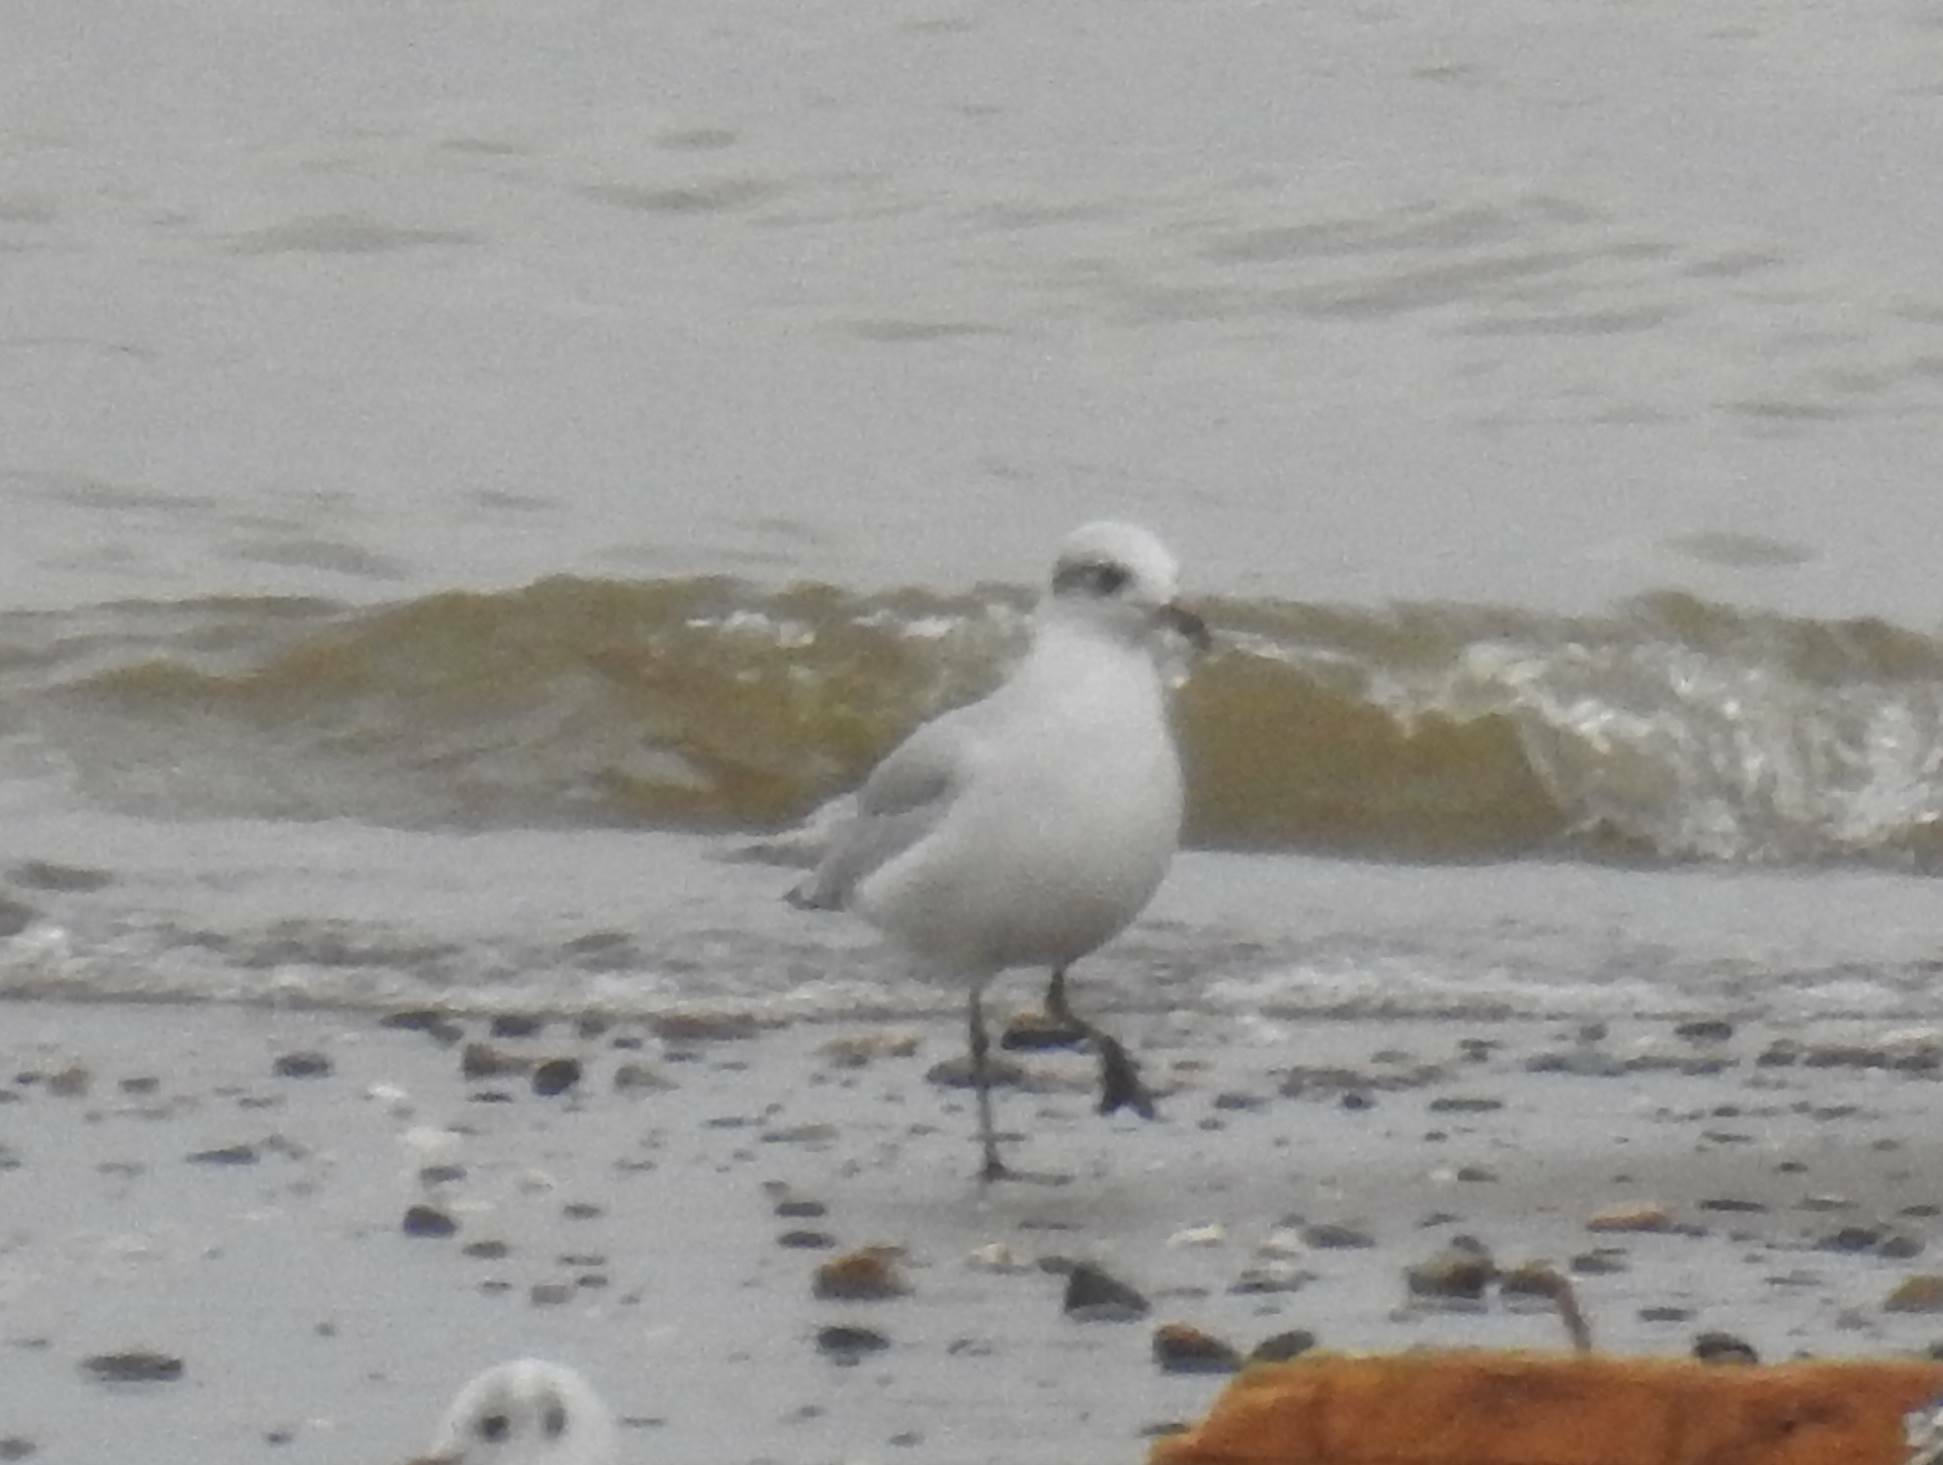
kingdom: Animalia
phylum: Chordata
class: Aves
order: Charadriiformes
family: Laridae
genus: Ichthyaetus
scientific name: Ichthyaetus melanocephalus
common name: Mediterranean gull
